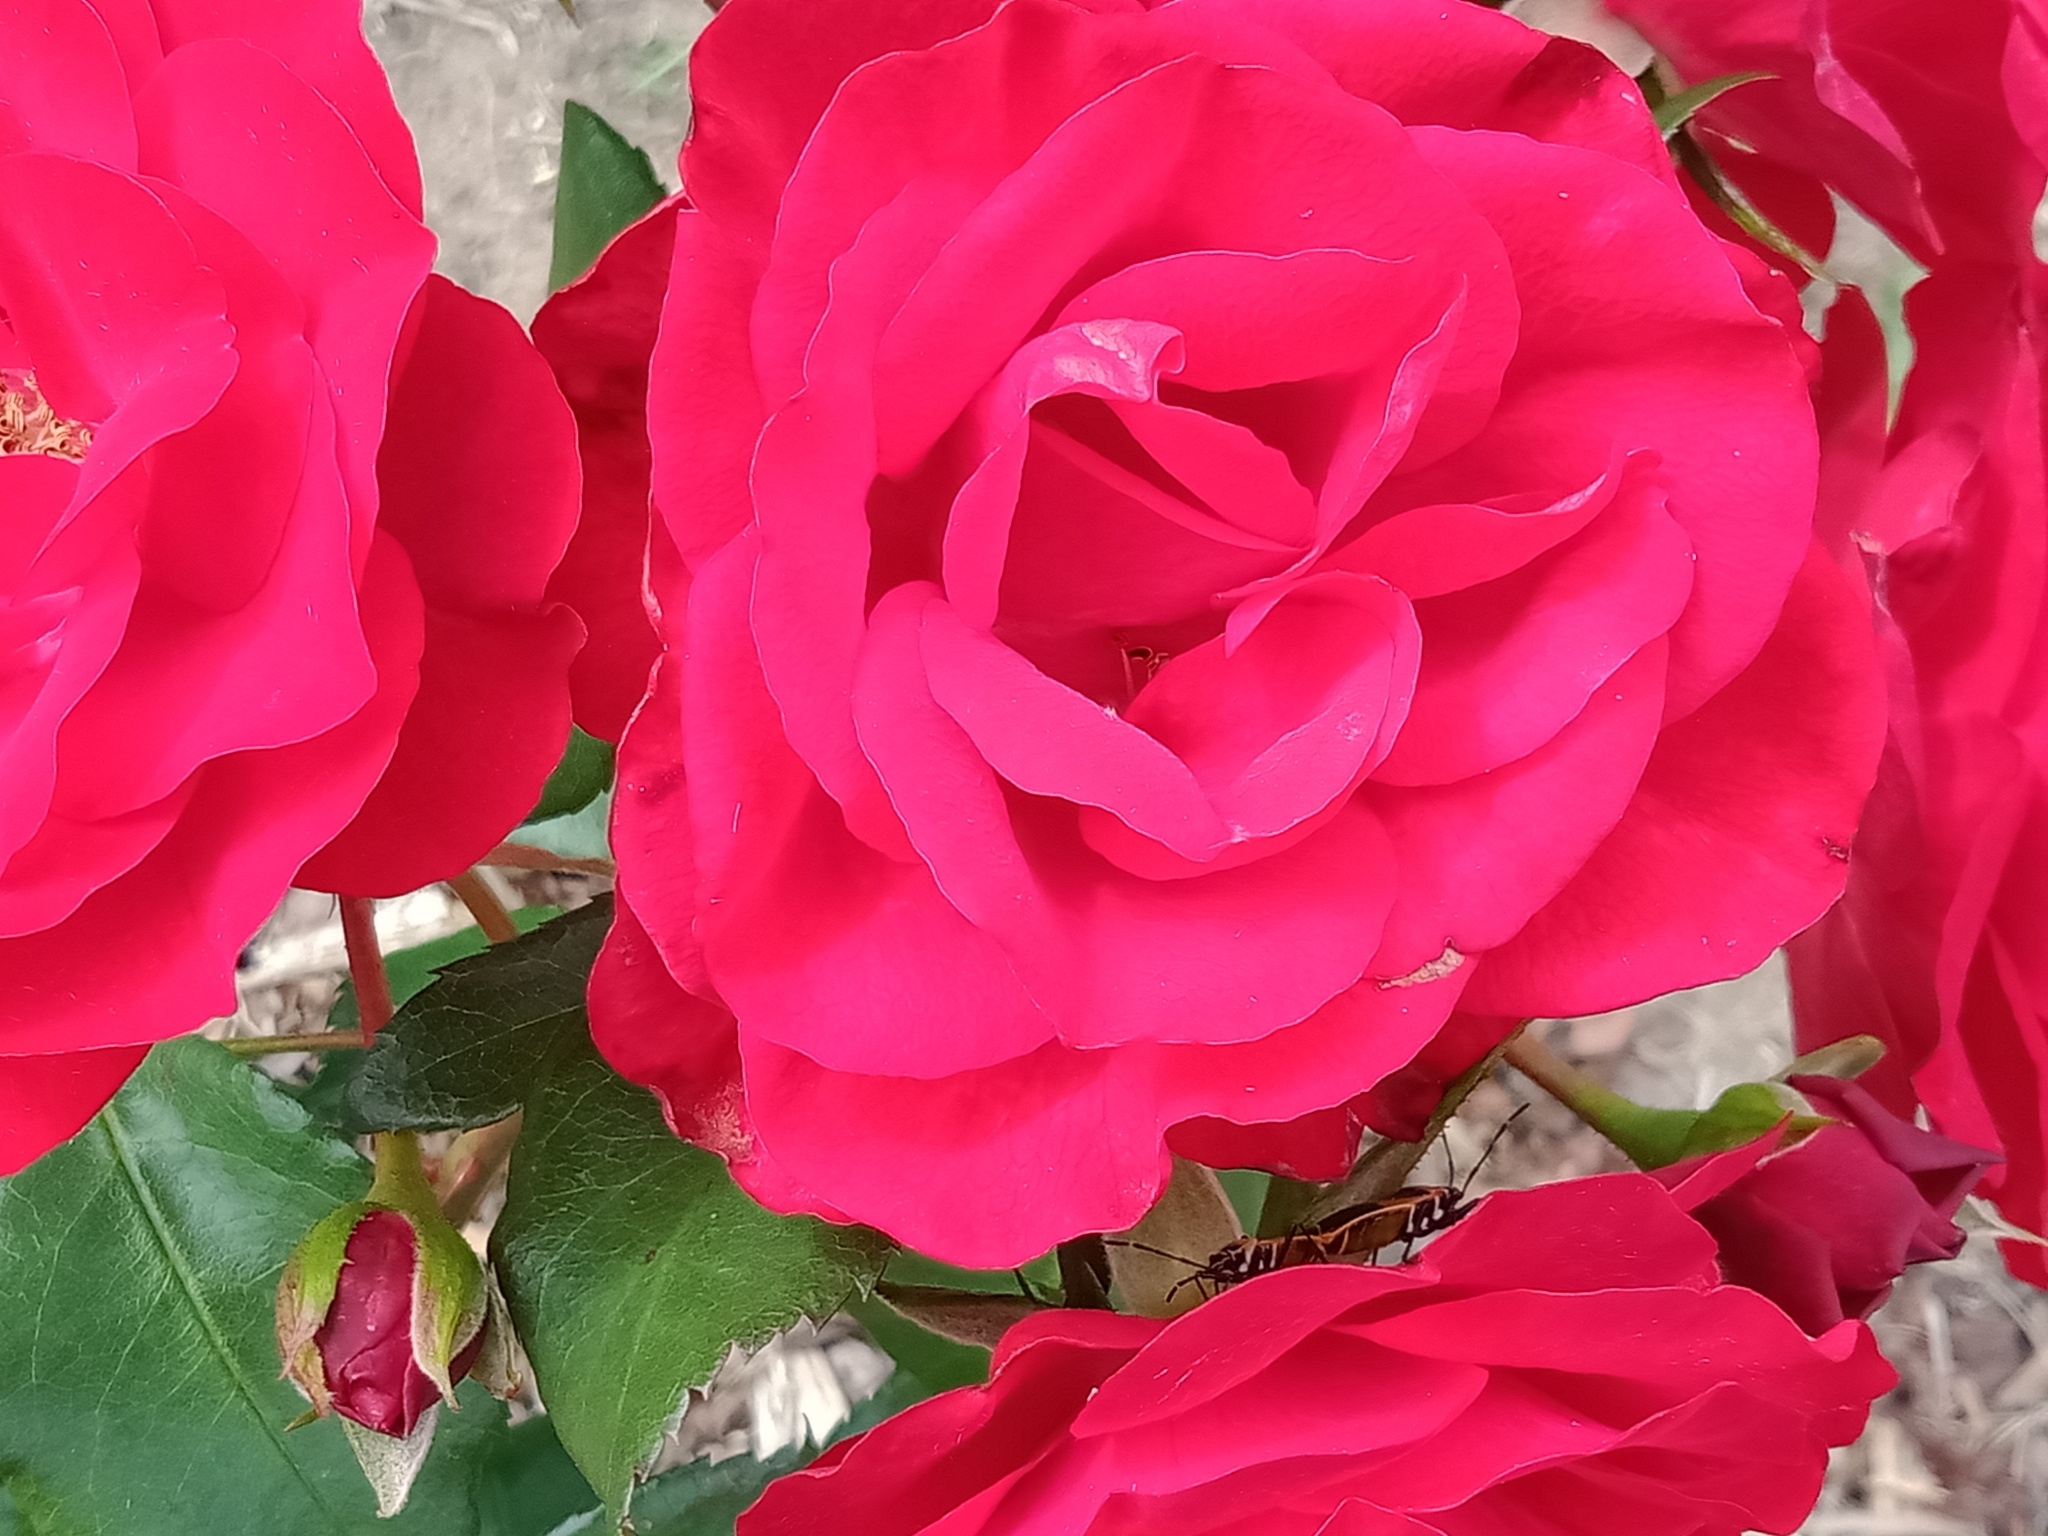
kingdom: Animalia
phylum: Arthropoda
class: Insecta
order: Hemiptera
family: Pyrrhocoridae
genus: Dindymus
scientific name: Dindymus
